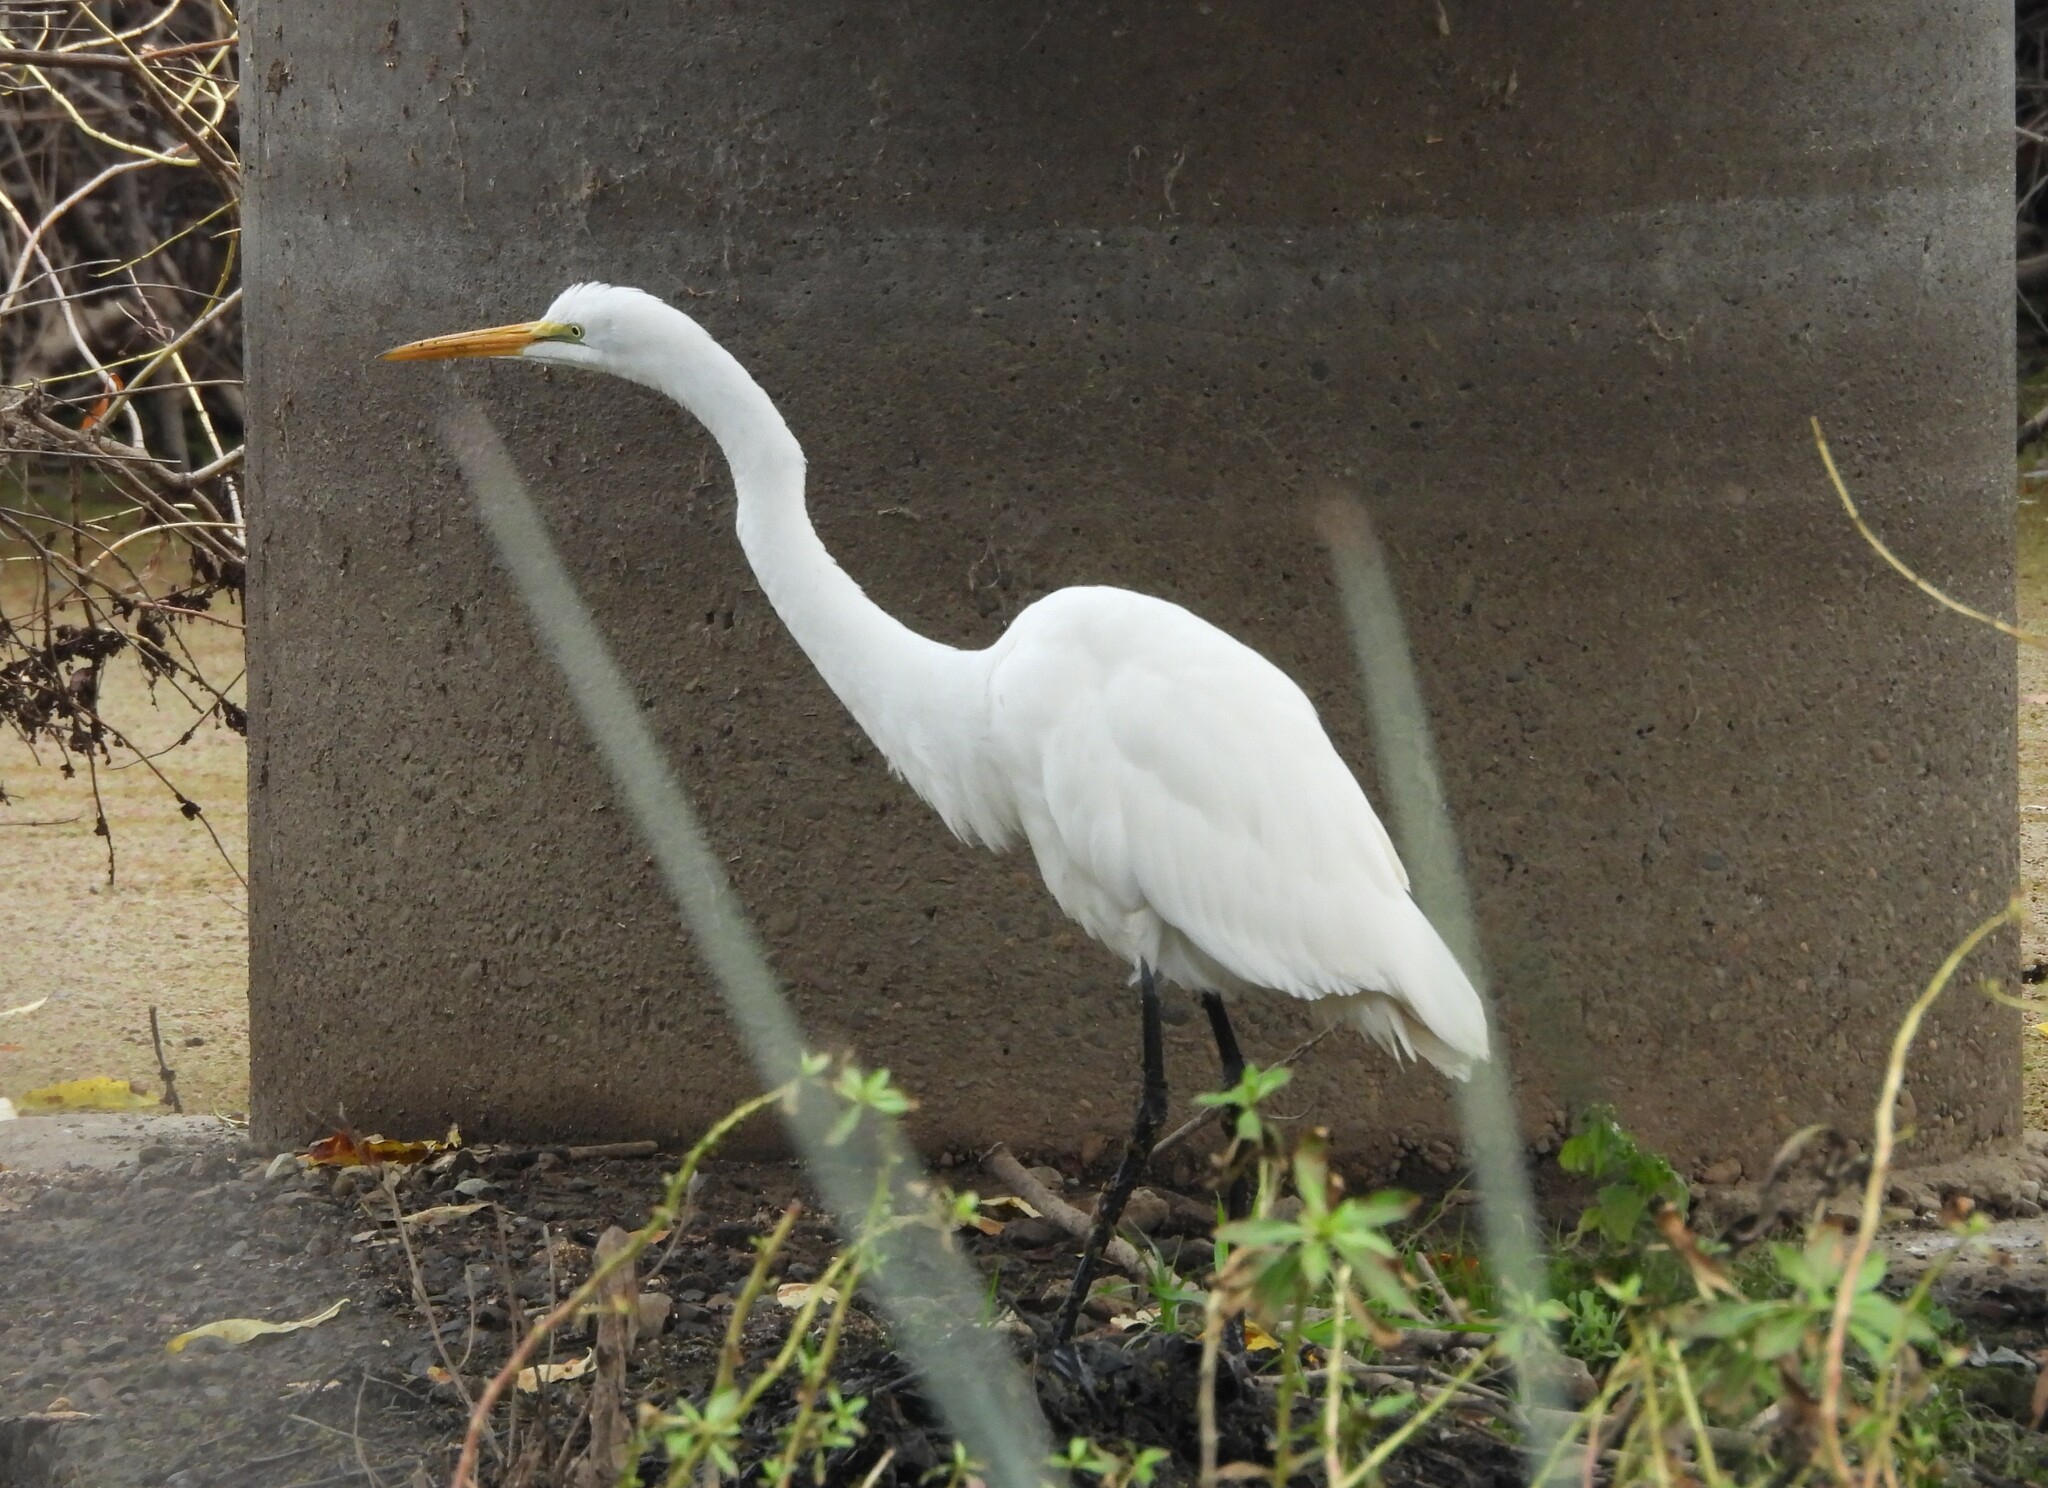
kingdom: Animalia
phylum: Chordata
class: Aves
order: Pelecaniformes
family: Ardeidae
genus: Ardea
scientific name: Ardea alba
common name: Great egret
